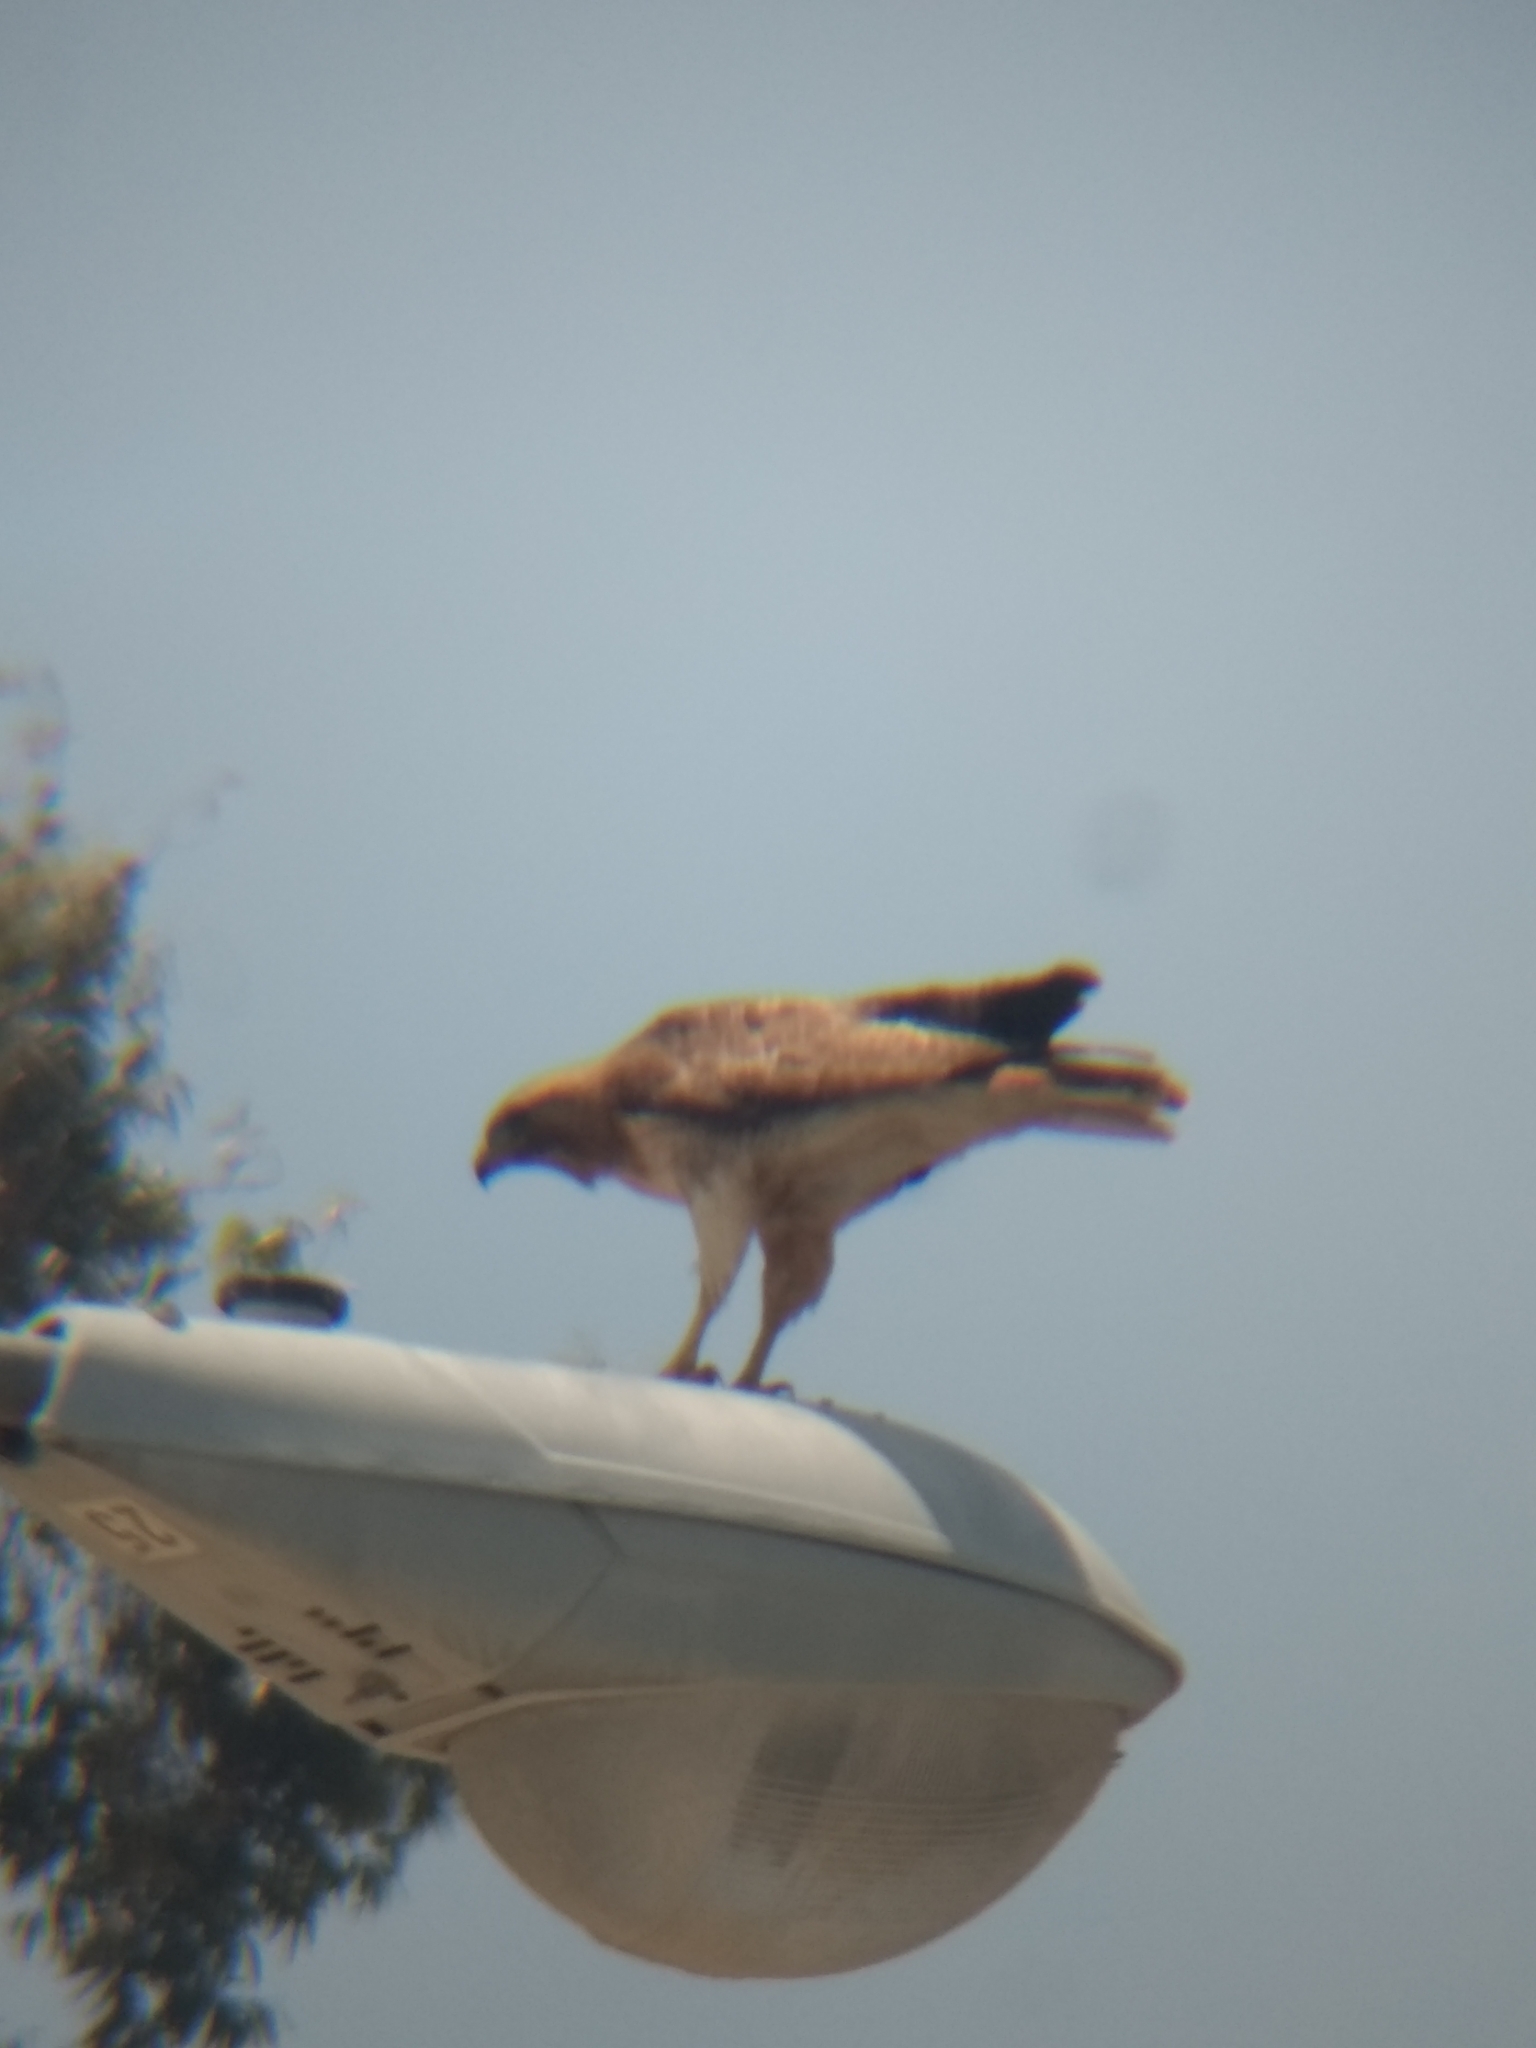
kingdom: Animalia
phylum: Chordata
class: Aves
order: Accipitriformes
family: Accipitridae
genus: Buteo
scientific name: Buteo jamaicensis
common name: Red-tailed hawk
